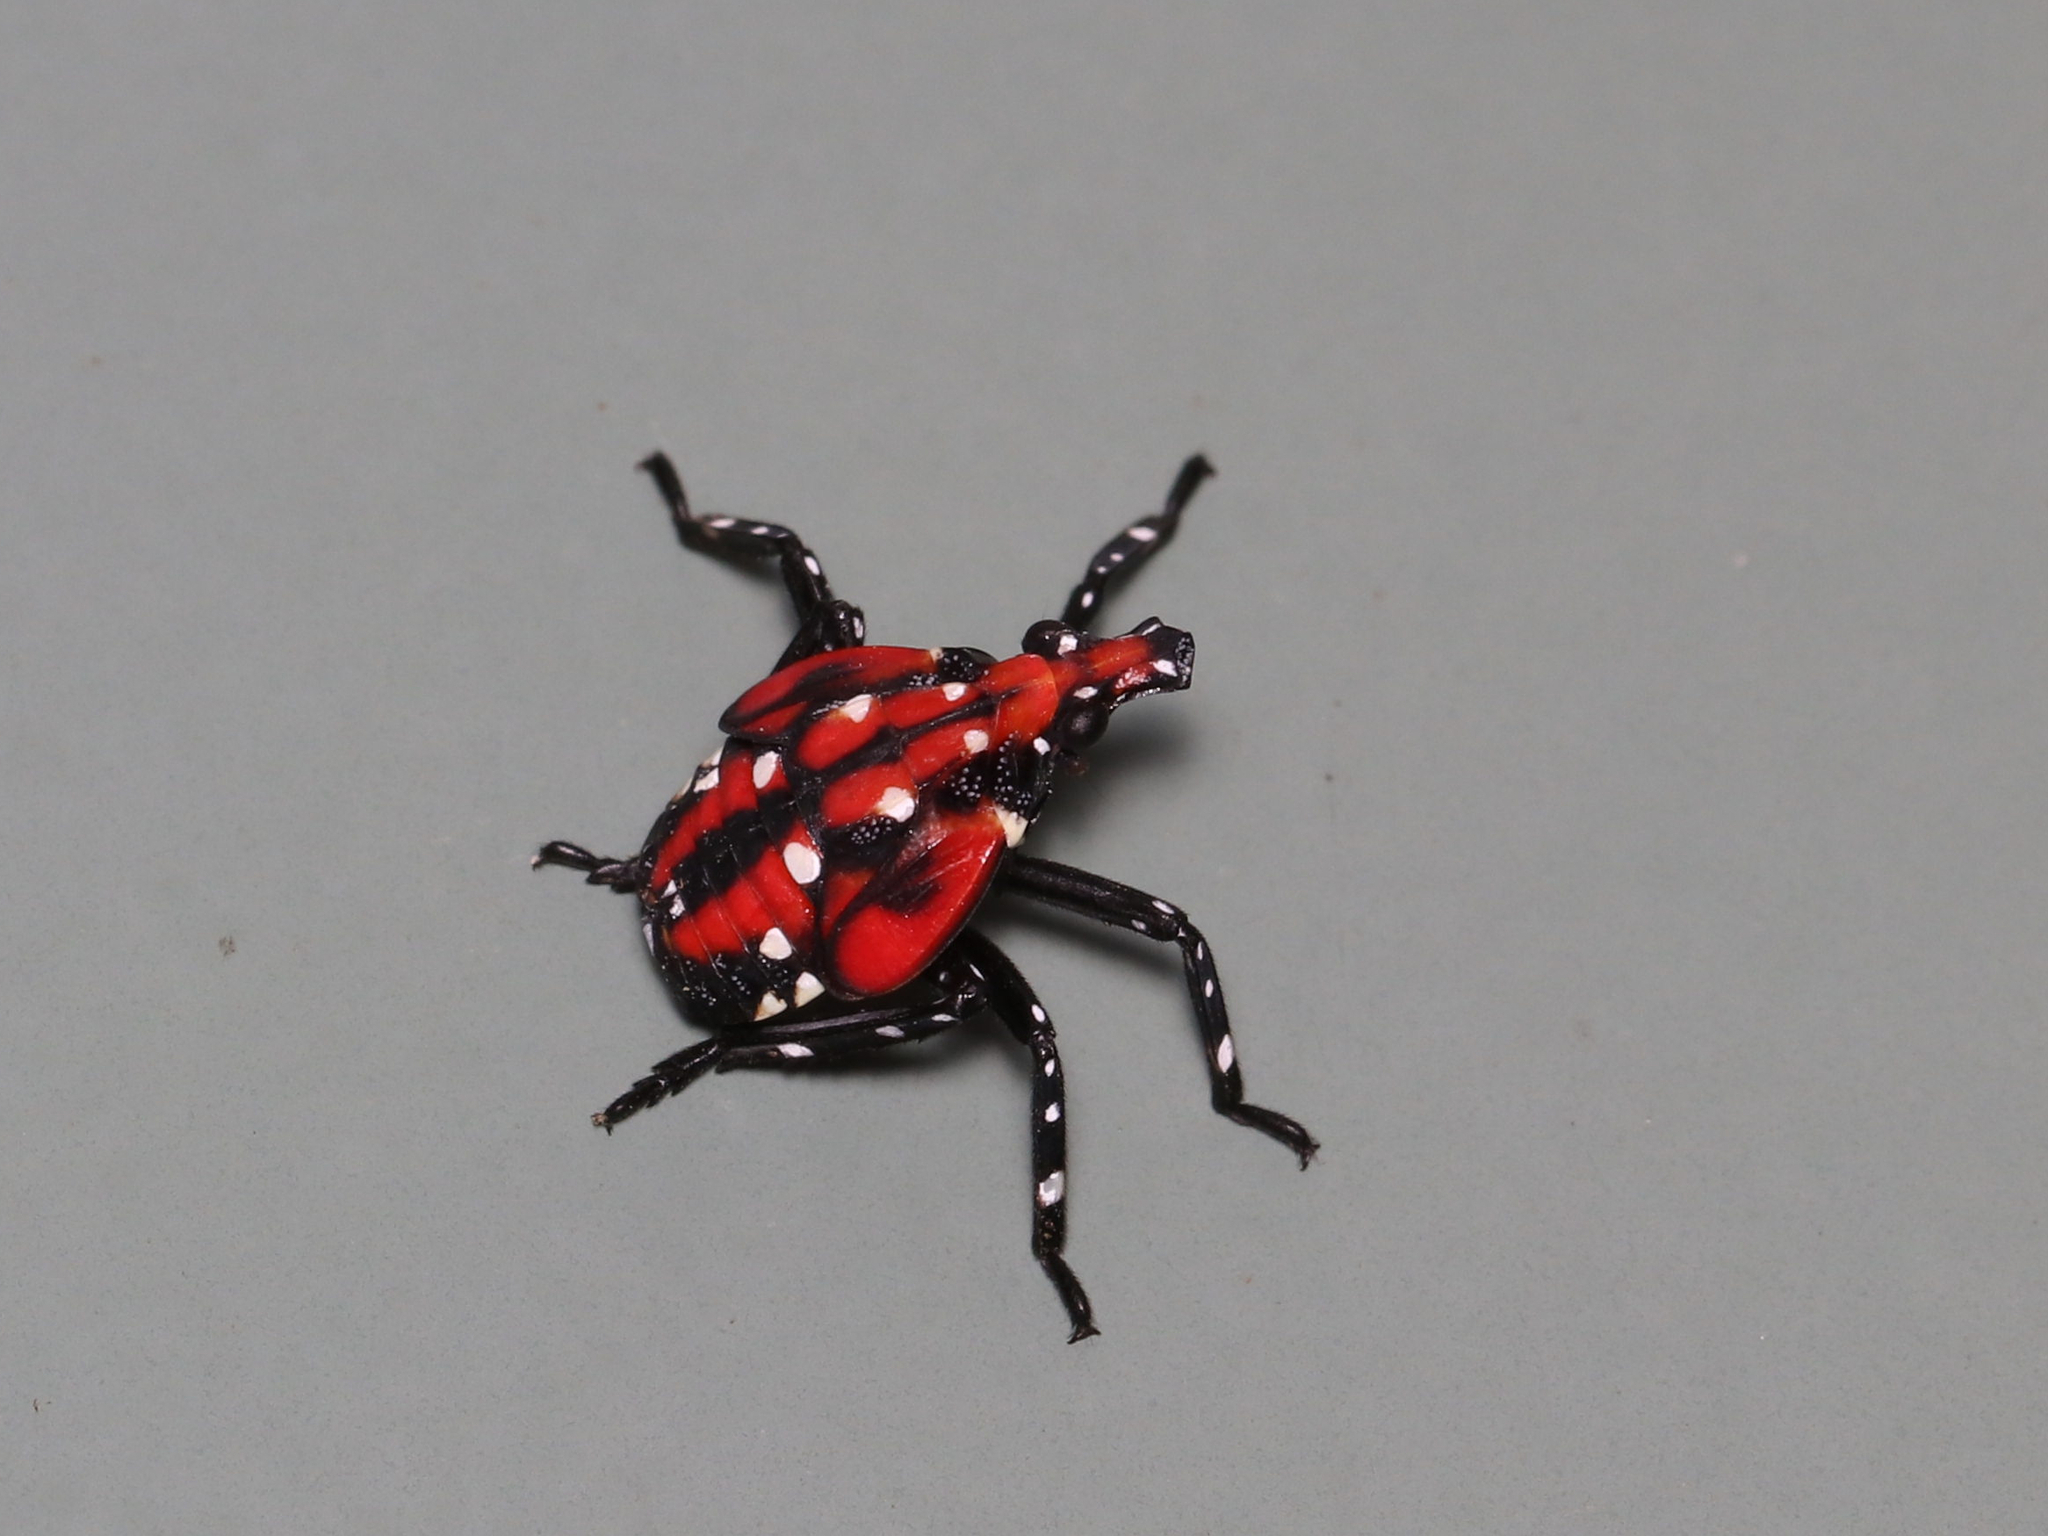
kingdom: Animalia
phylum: Arthropoda
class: Insecta
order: Hemiptera
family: Fulgoridae
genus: Lycorma
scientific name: Lycorma delicatula
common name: Spotted lanternfly
